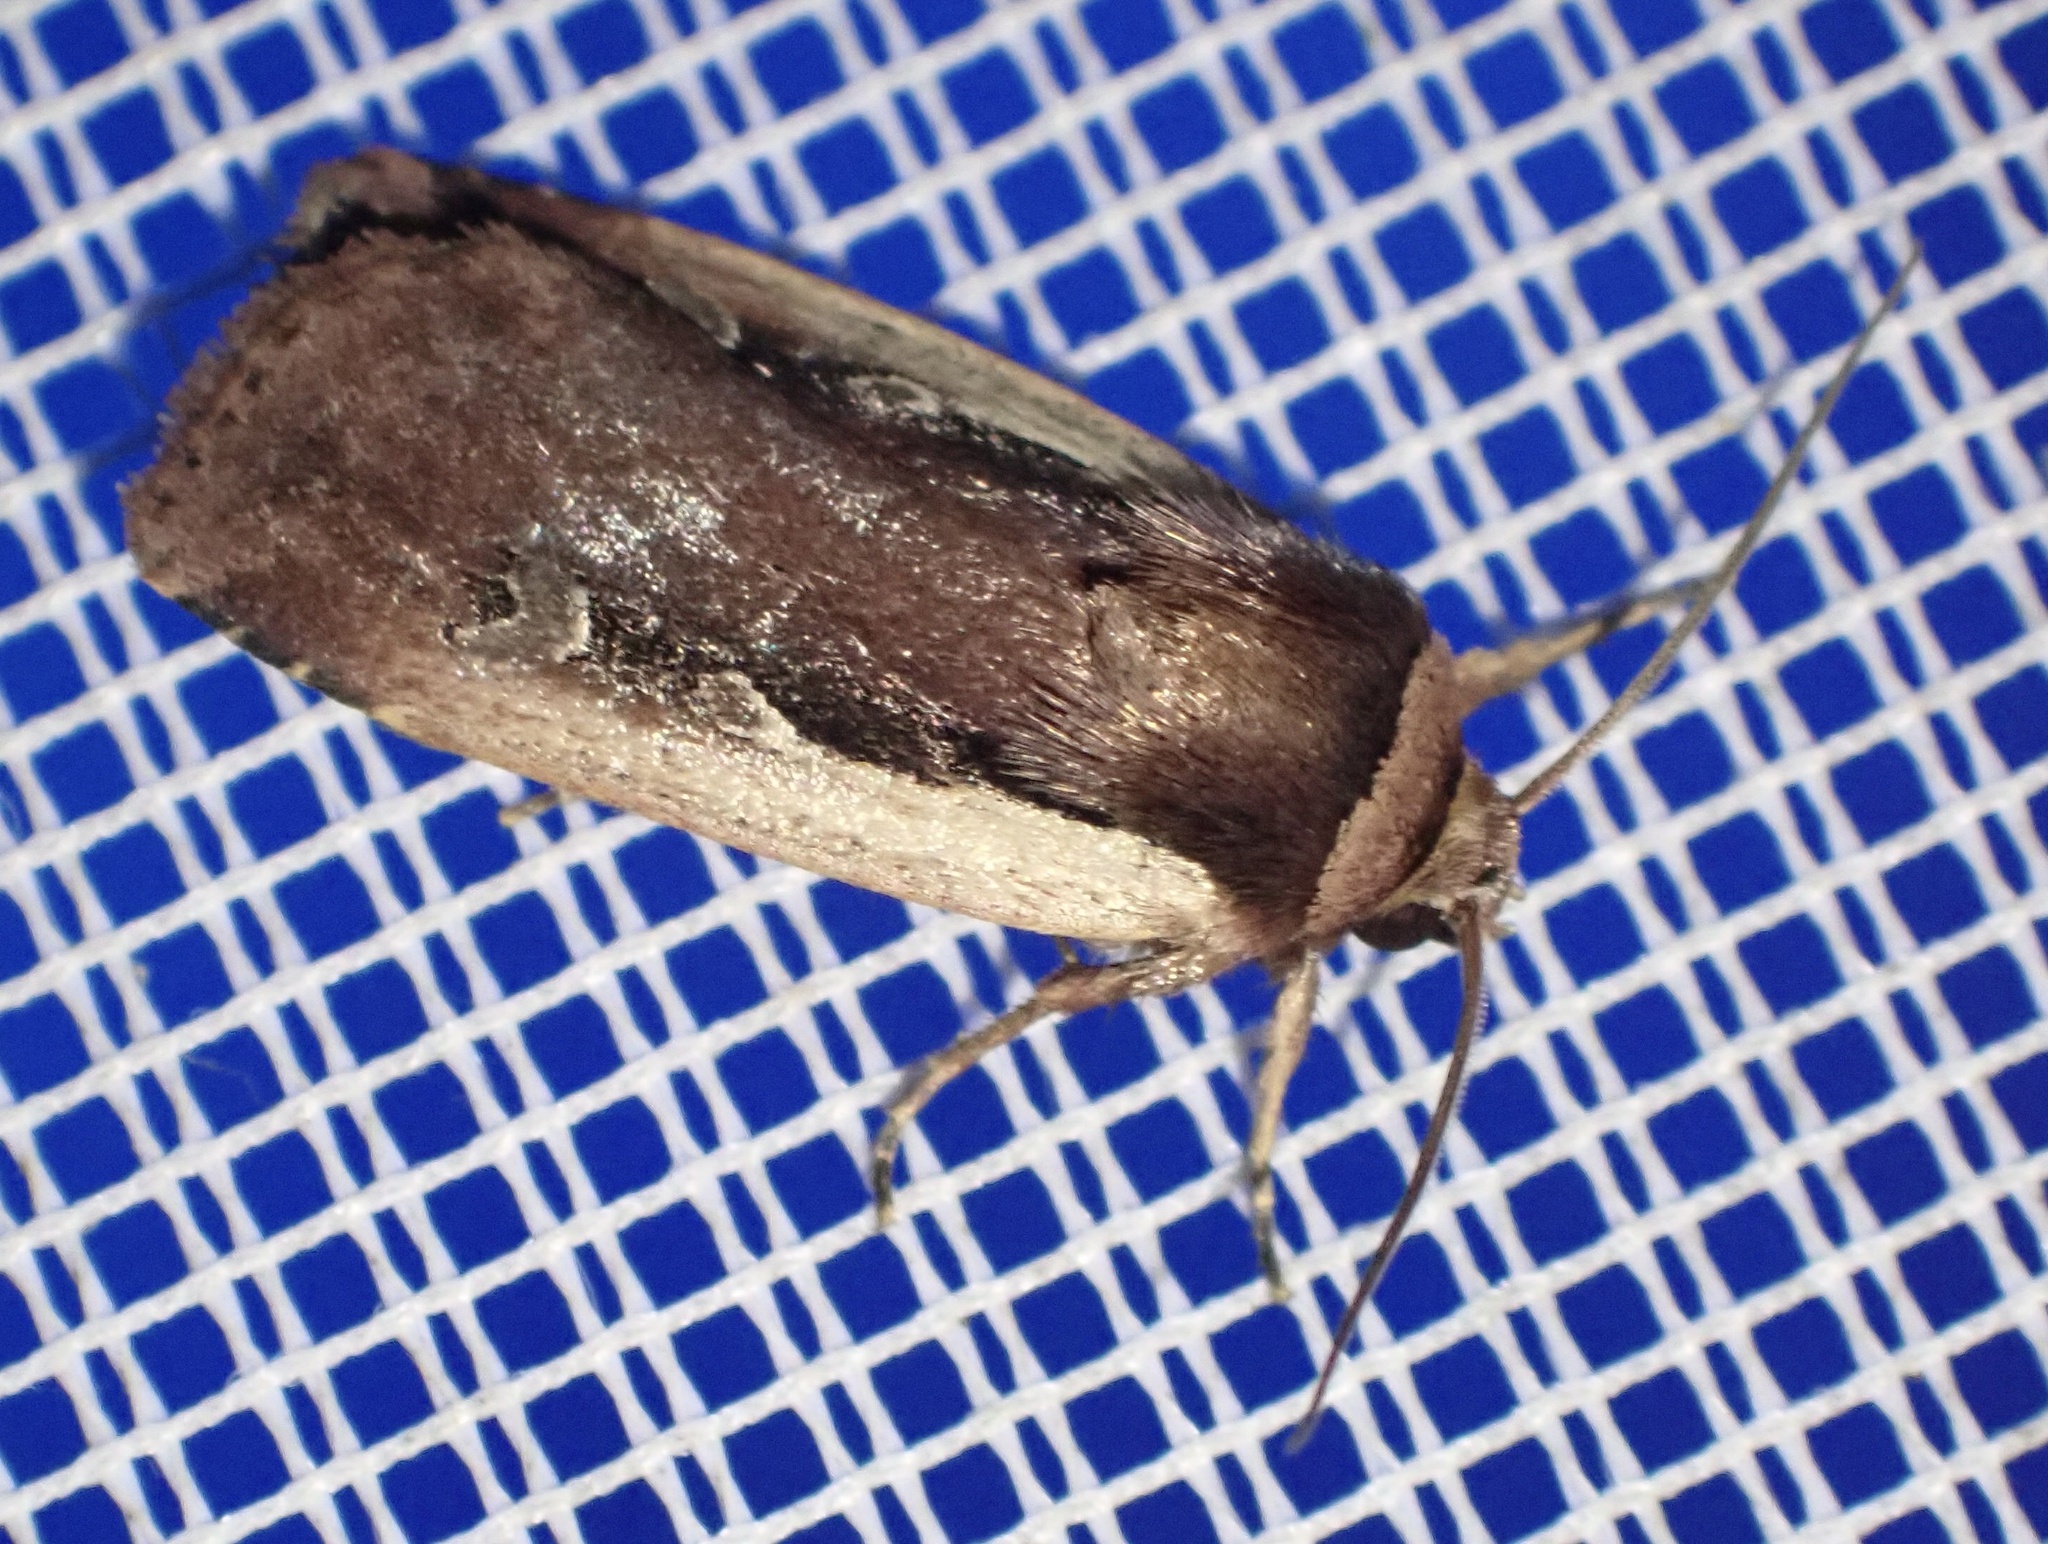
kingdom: Animalia
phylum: Arthropoda
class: Insecta
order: Lepidoptera
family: Noctuidae
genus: Ochropleura
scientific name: Ochropleura plecta
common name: Flame shoulder
